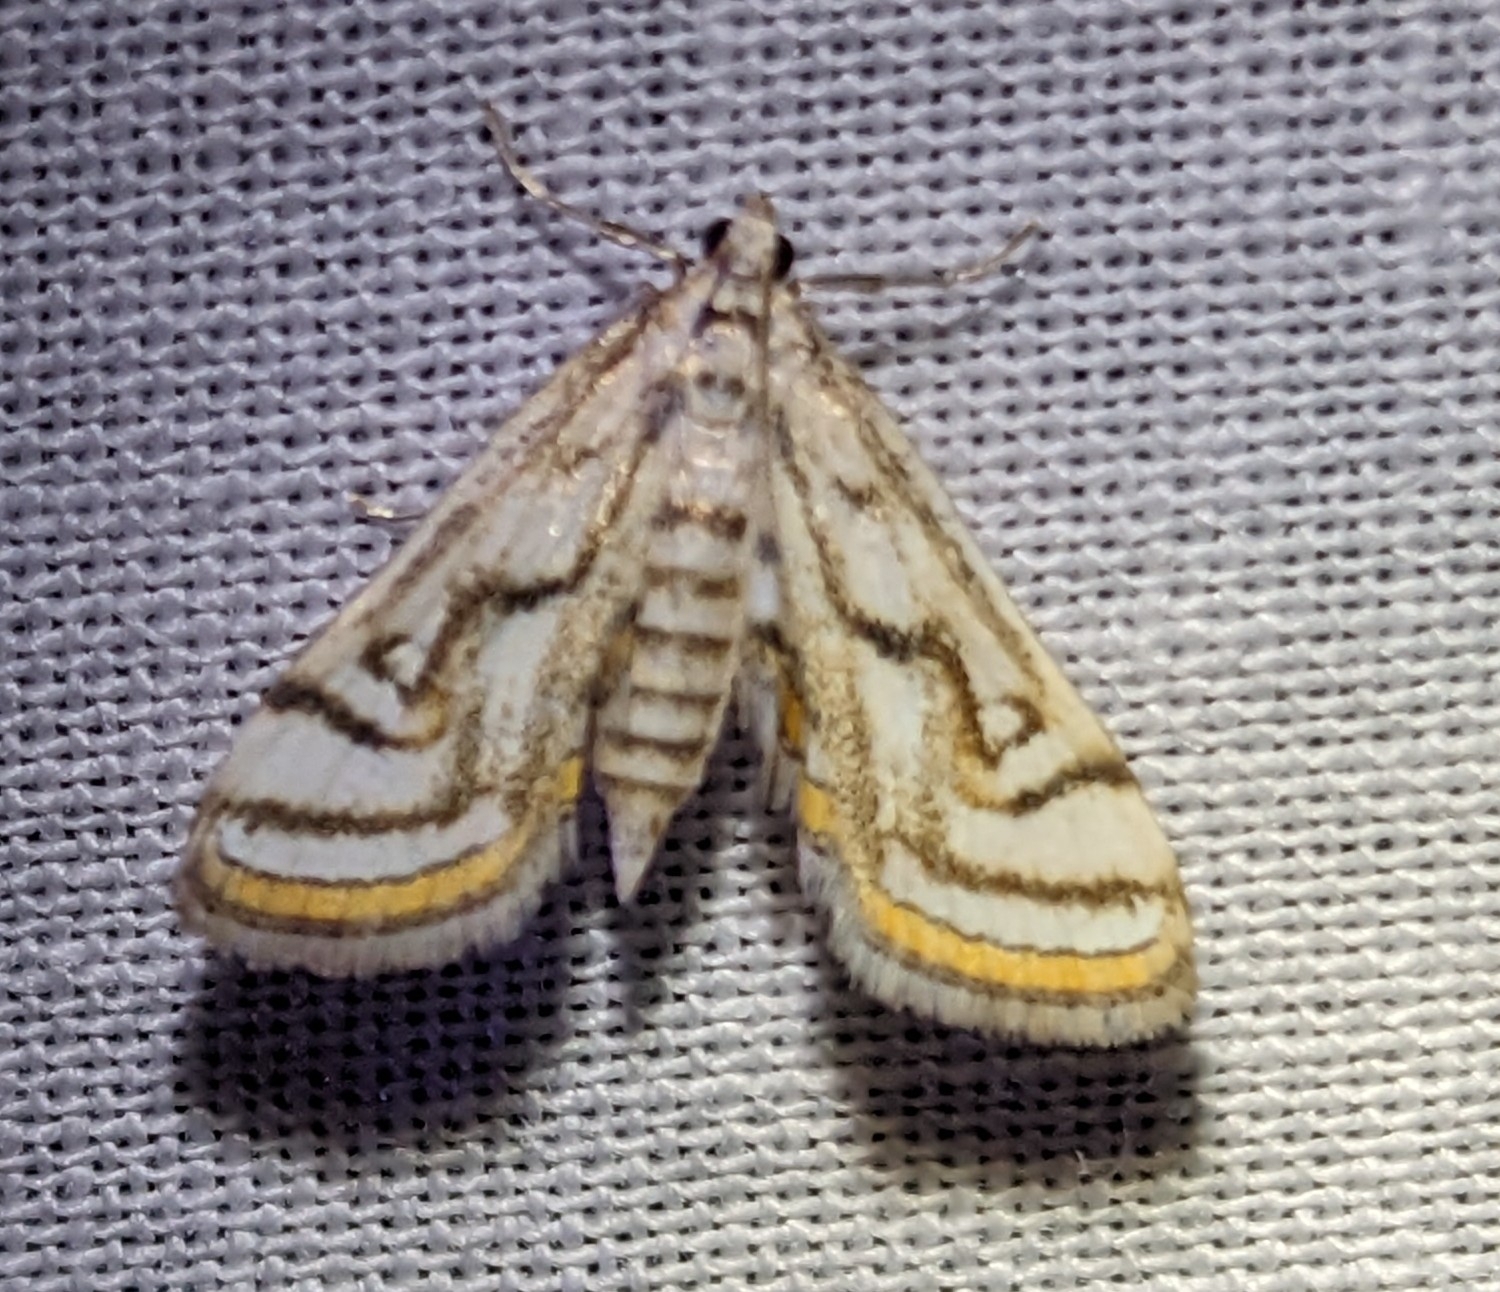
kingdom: Animalia
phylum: Arthropoda
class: Insecta
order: Lepidoptera
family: Crambidae
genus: Parapoynx
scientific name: Parapoynx badiusalis
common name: Chestnut-marked pondweed moth
